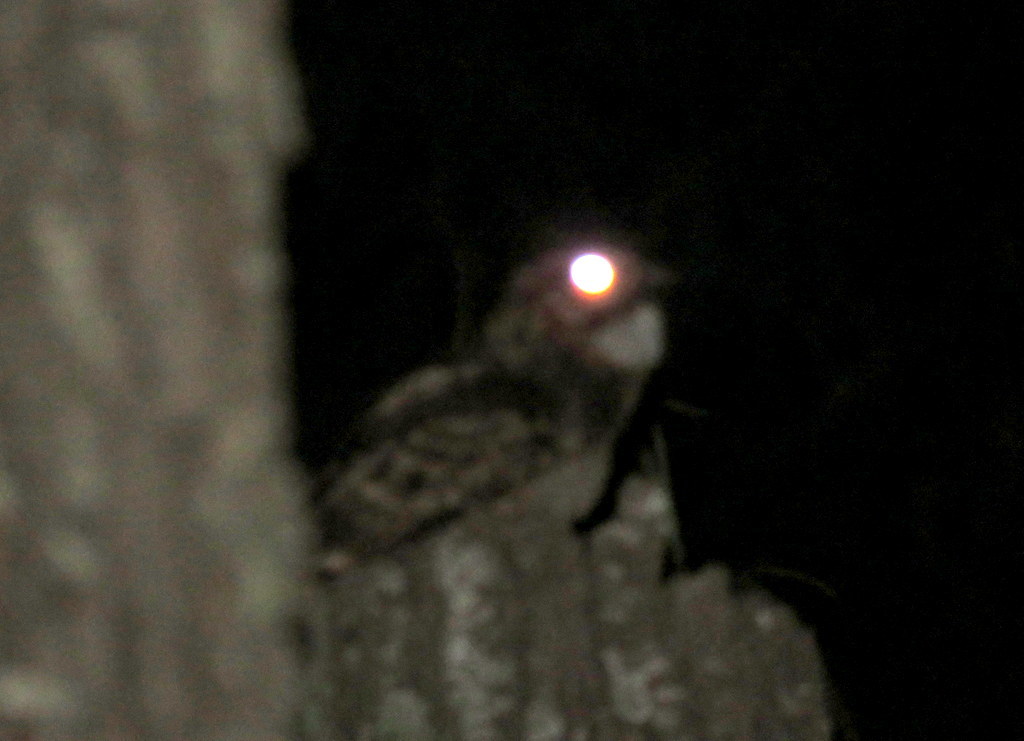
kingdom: Animalia
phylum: Chordata
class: Aves
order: Caprimulgiformes
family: Caprimulgidae
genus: Setopagis
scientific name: Setopagis parvula
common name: Little nightjar
